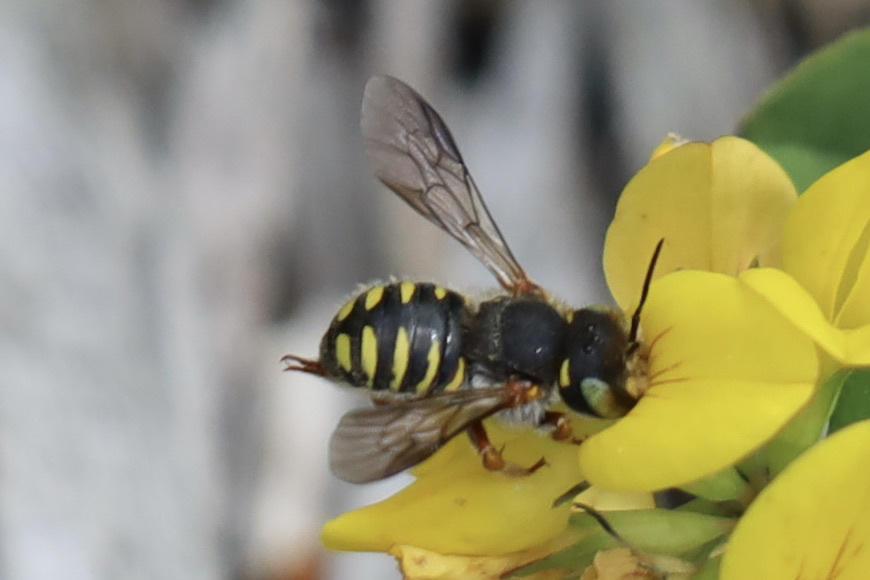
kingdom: Animalia
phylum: Arthropoda
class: Insecta
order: Hymenoptera
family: Megachilidae
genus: Anthidium
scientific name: Anthidium oblongatum
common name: Oblong wool carder bee
